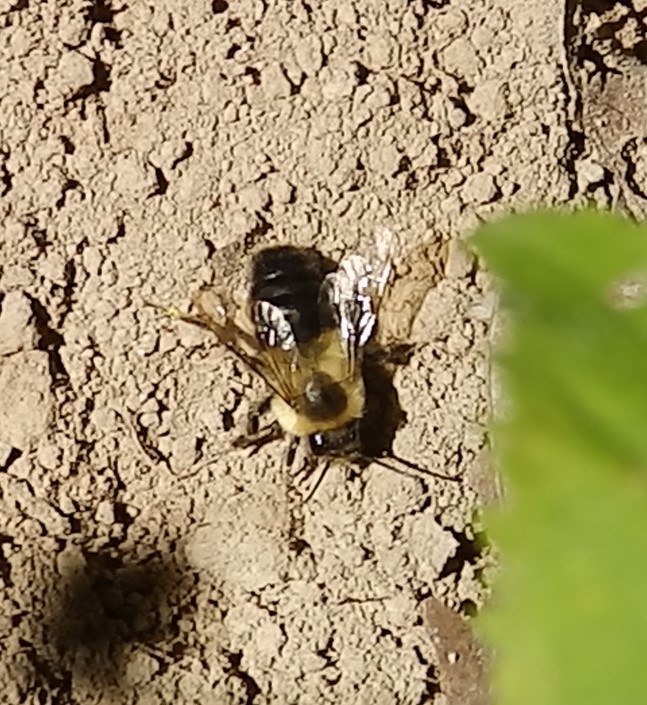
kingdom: Animalia
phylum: Arthropoda
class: Insecta
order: Hymenoptera
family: Apidae
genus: Bombus
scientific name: Bombus impatiens
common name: Common eastern bumble bee
